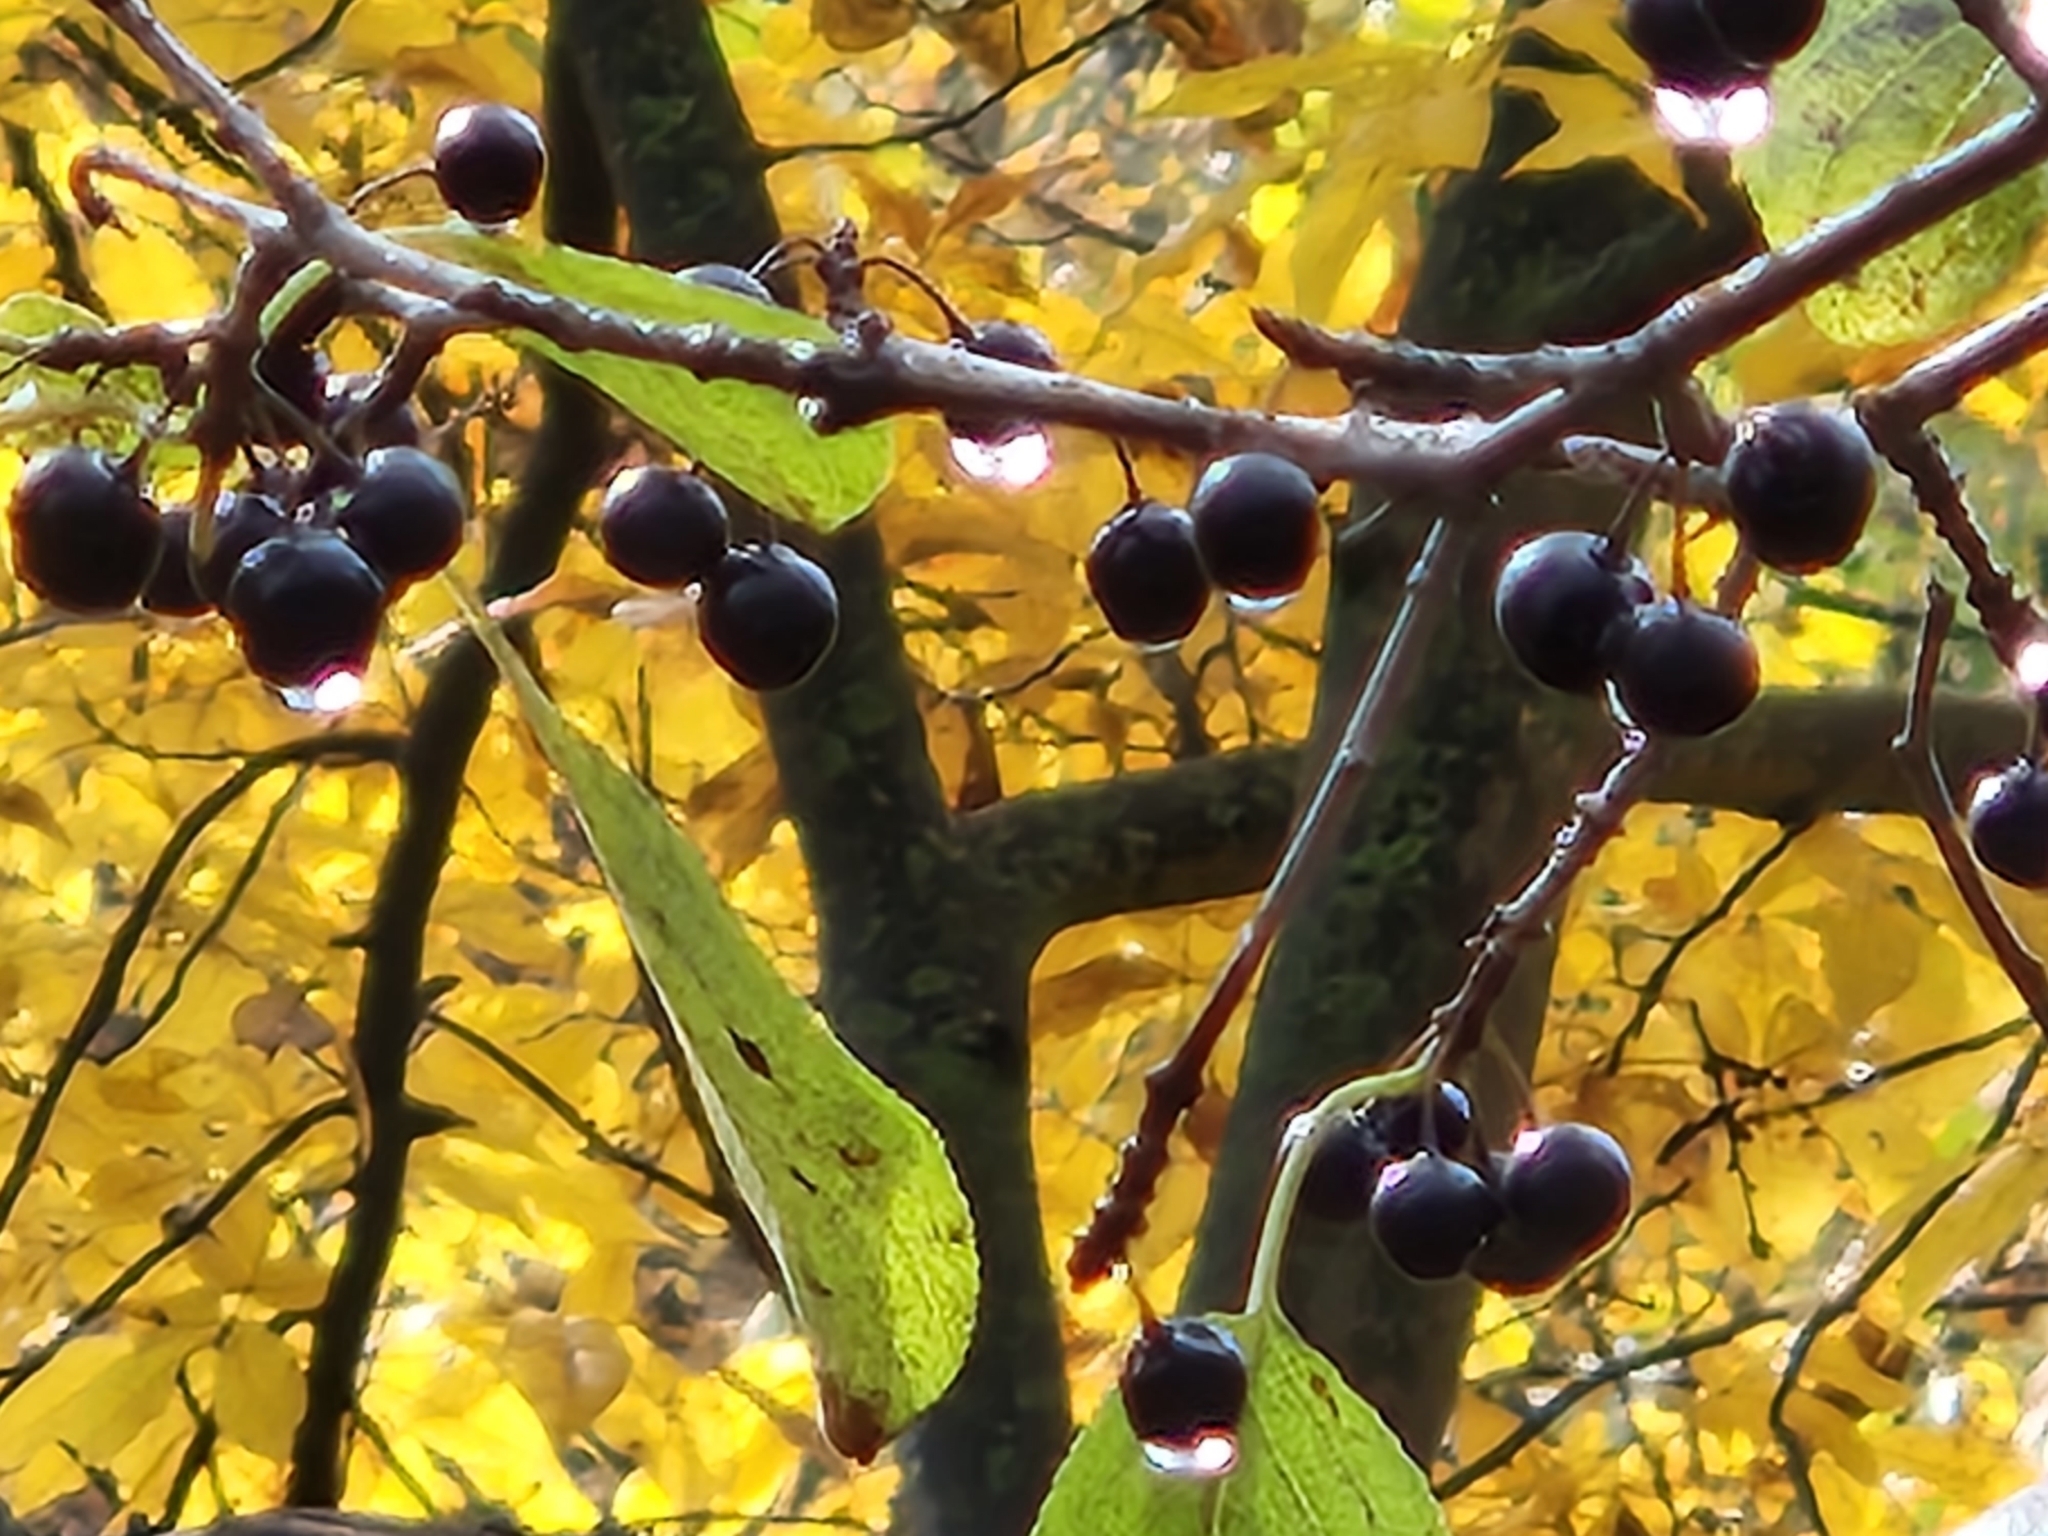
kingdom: Plantae
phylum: Tracheophyta
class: Magnoliopsida
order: Rosales
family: Rhamnaceae
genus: Rhamnus
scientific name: Rhamnus cathartica
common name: Common buckthorn
